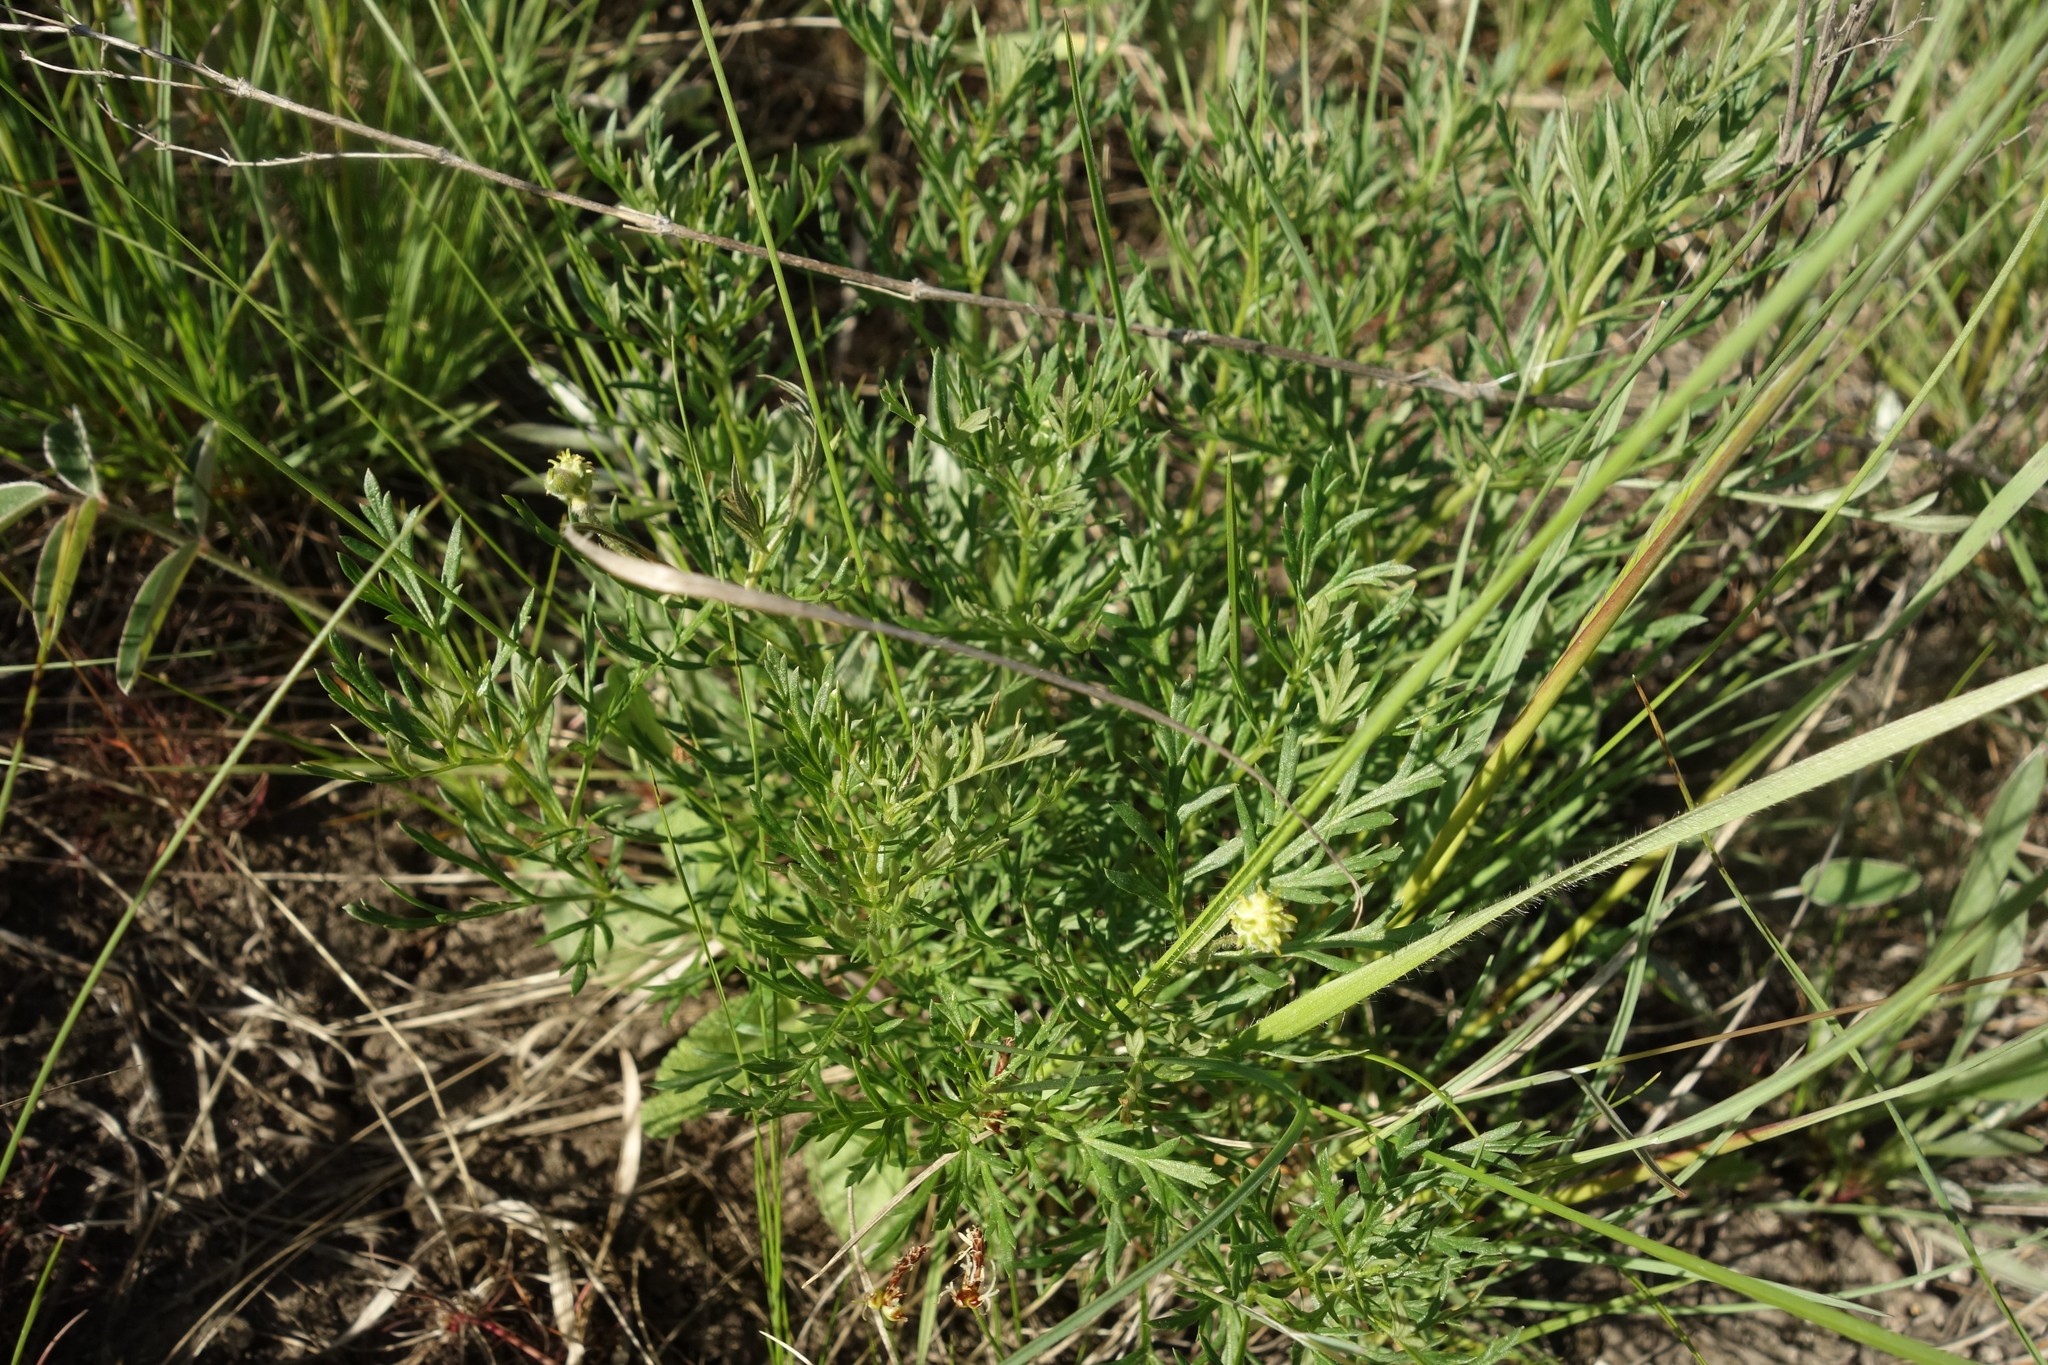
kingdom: Plantae
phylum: Tracheophyta
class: Magnoliopsida
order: Ranunculales
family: Ranunculaceae
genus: Adonis
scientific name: Adonis volgensis
